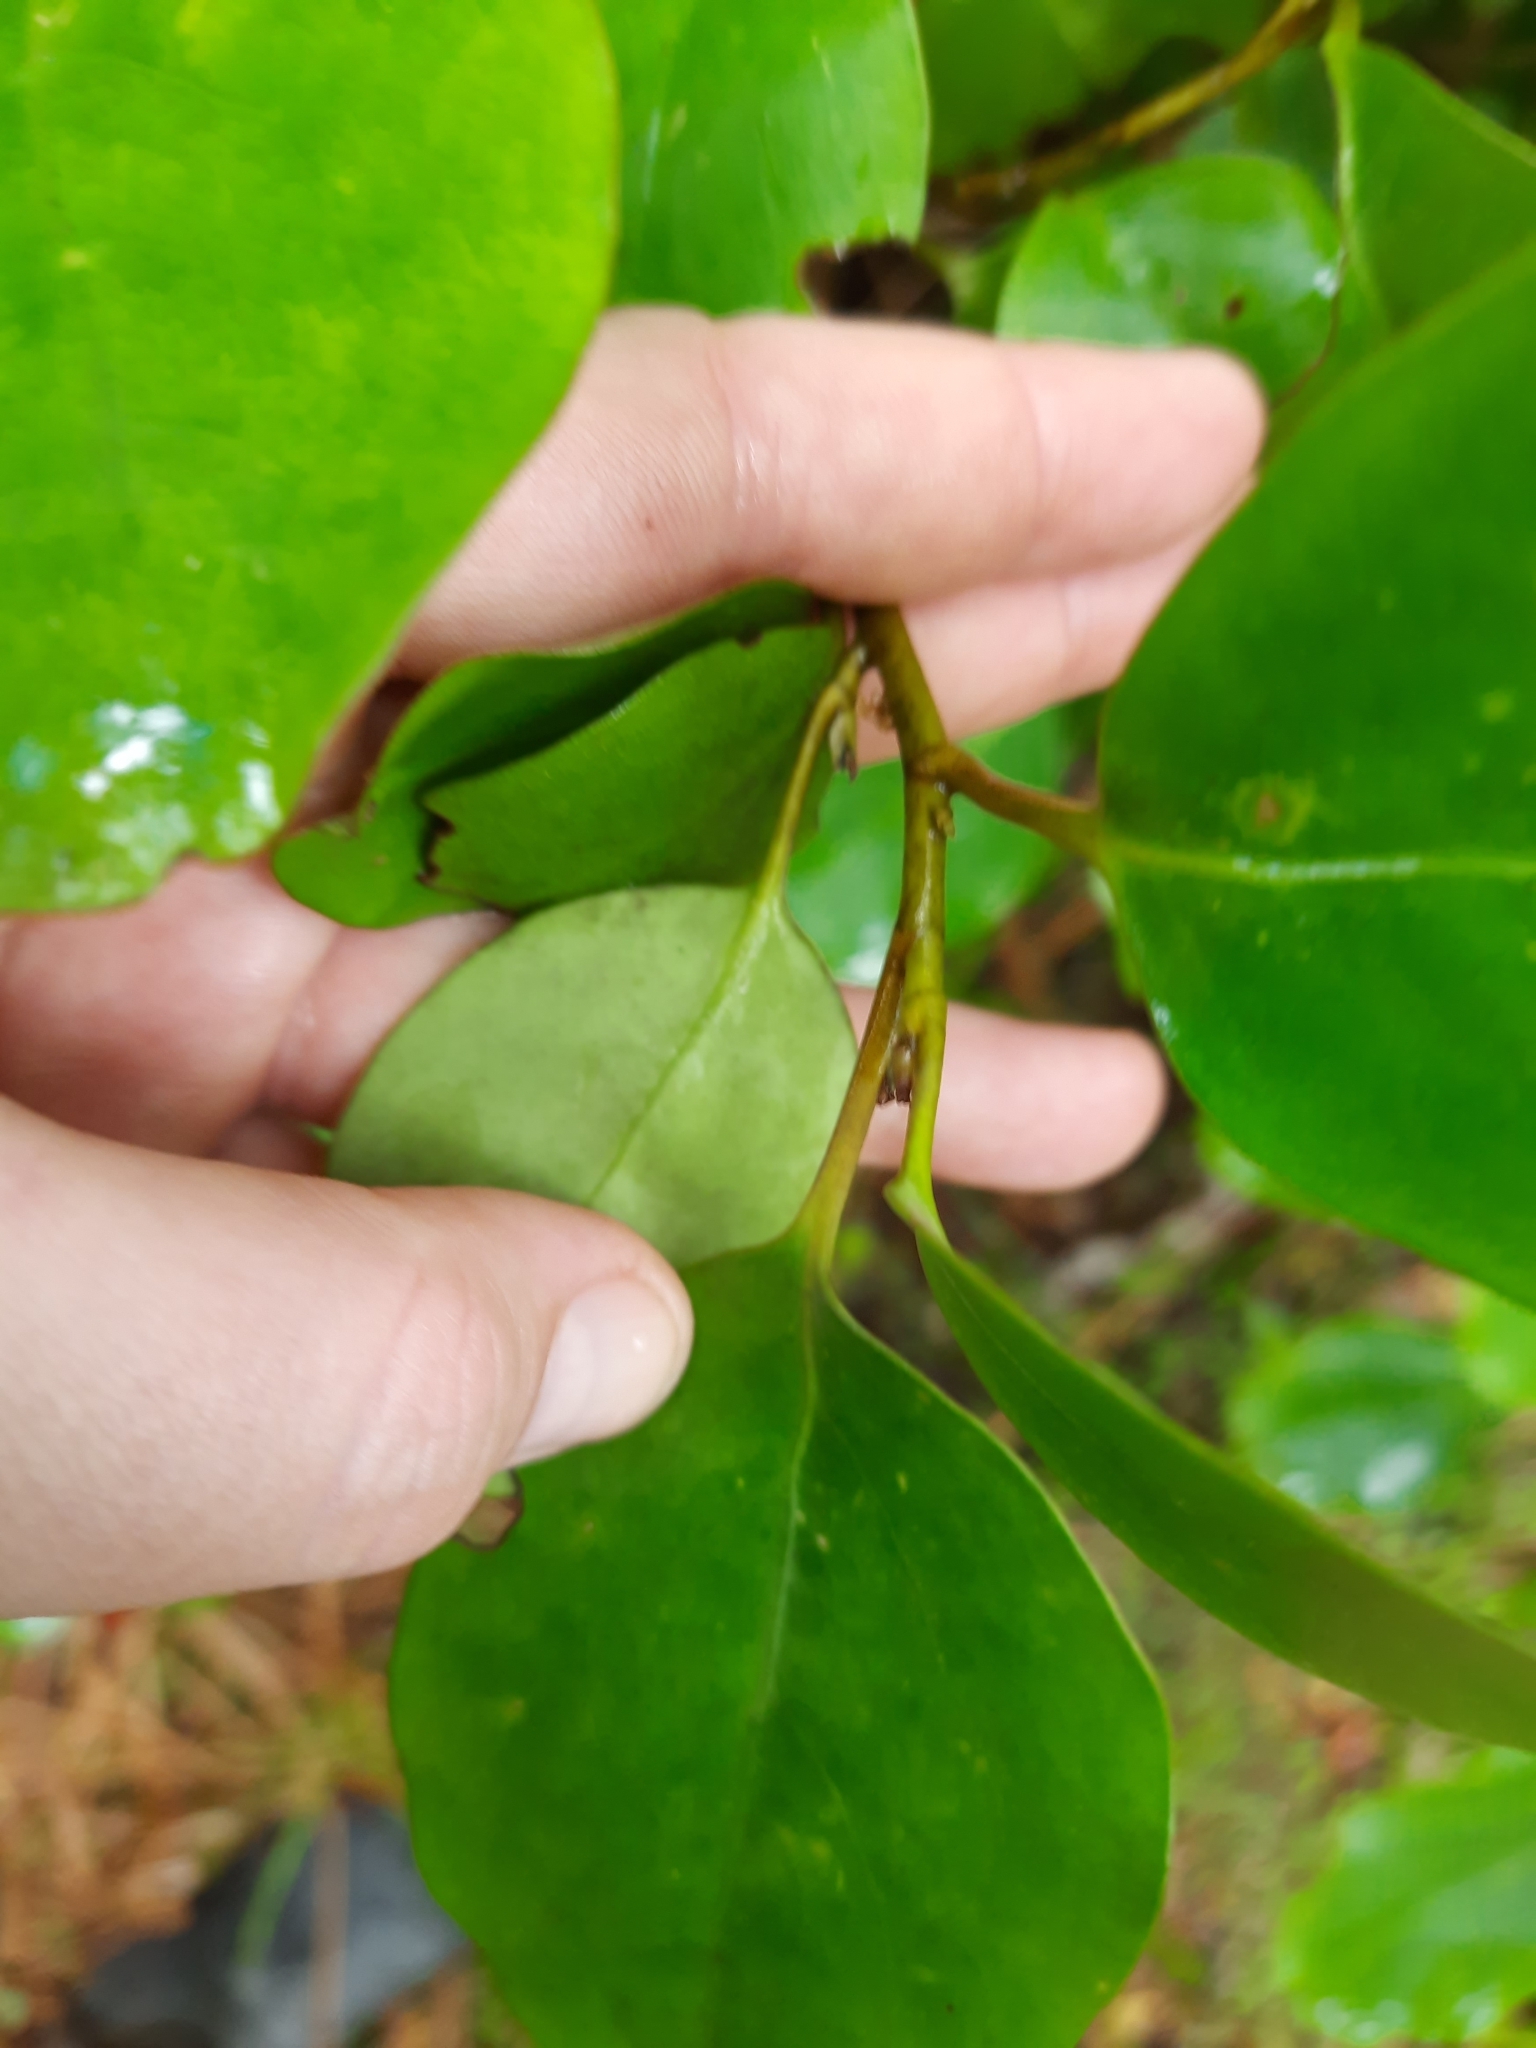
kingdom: Plantae
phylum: Tracheophyta
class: Magnoliopsida
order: Apiales
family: Griseliniaceae
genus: Griselinia
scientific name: Griselinia littoralis
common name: New zealand broadleaf
